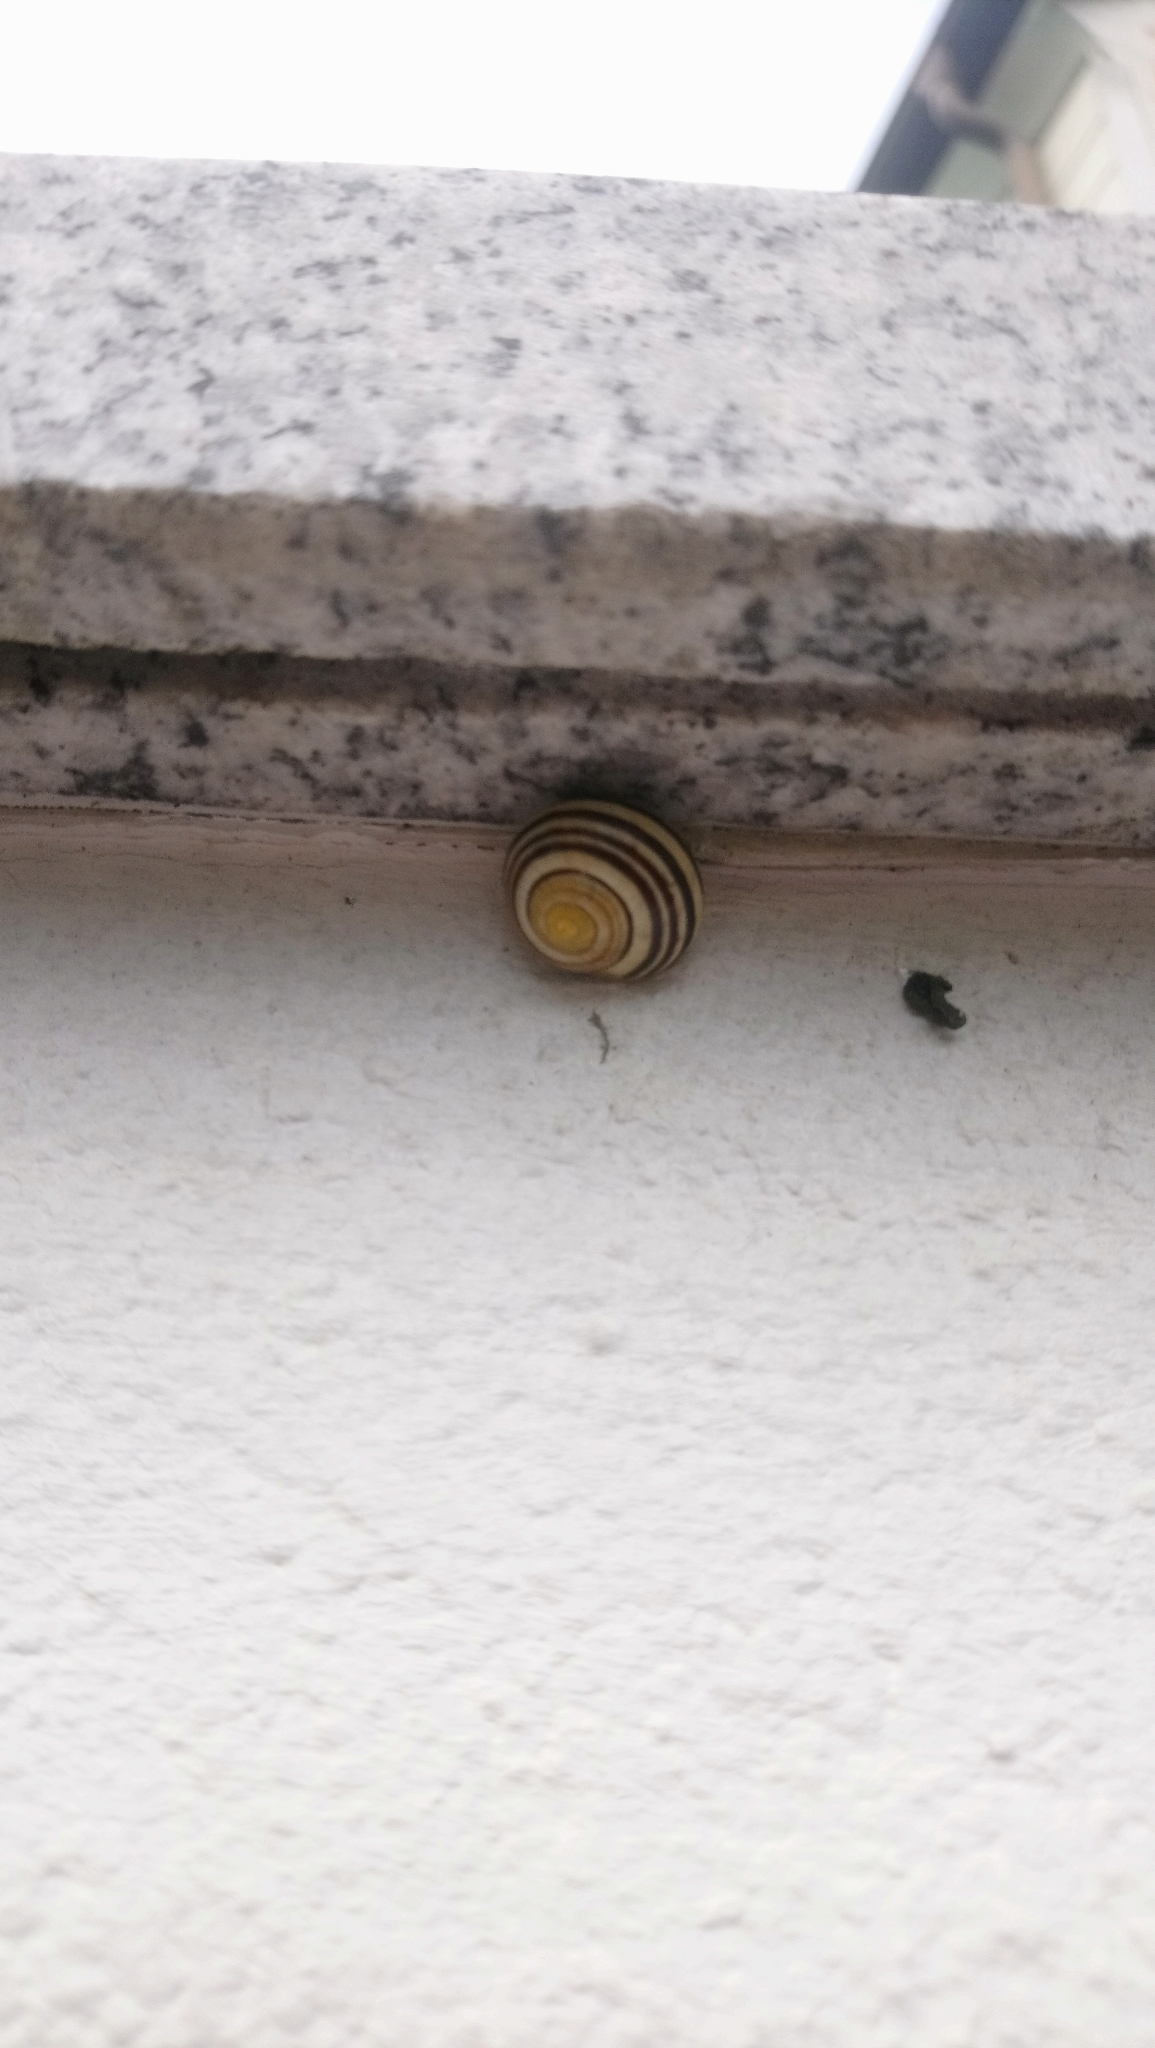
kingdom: Animalia
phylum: Mollusca
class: Gastropoda
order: Stylommatophora
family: Helicidae
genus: Cepaea
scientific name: Cepaea
